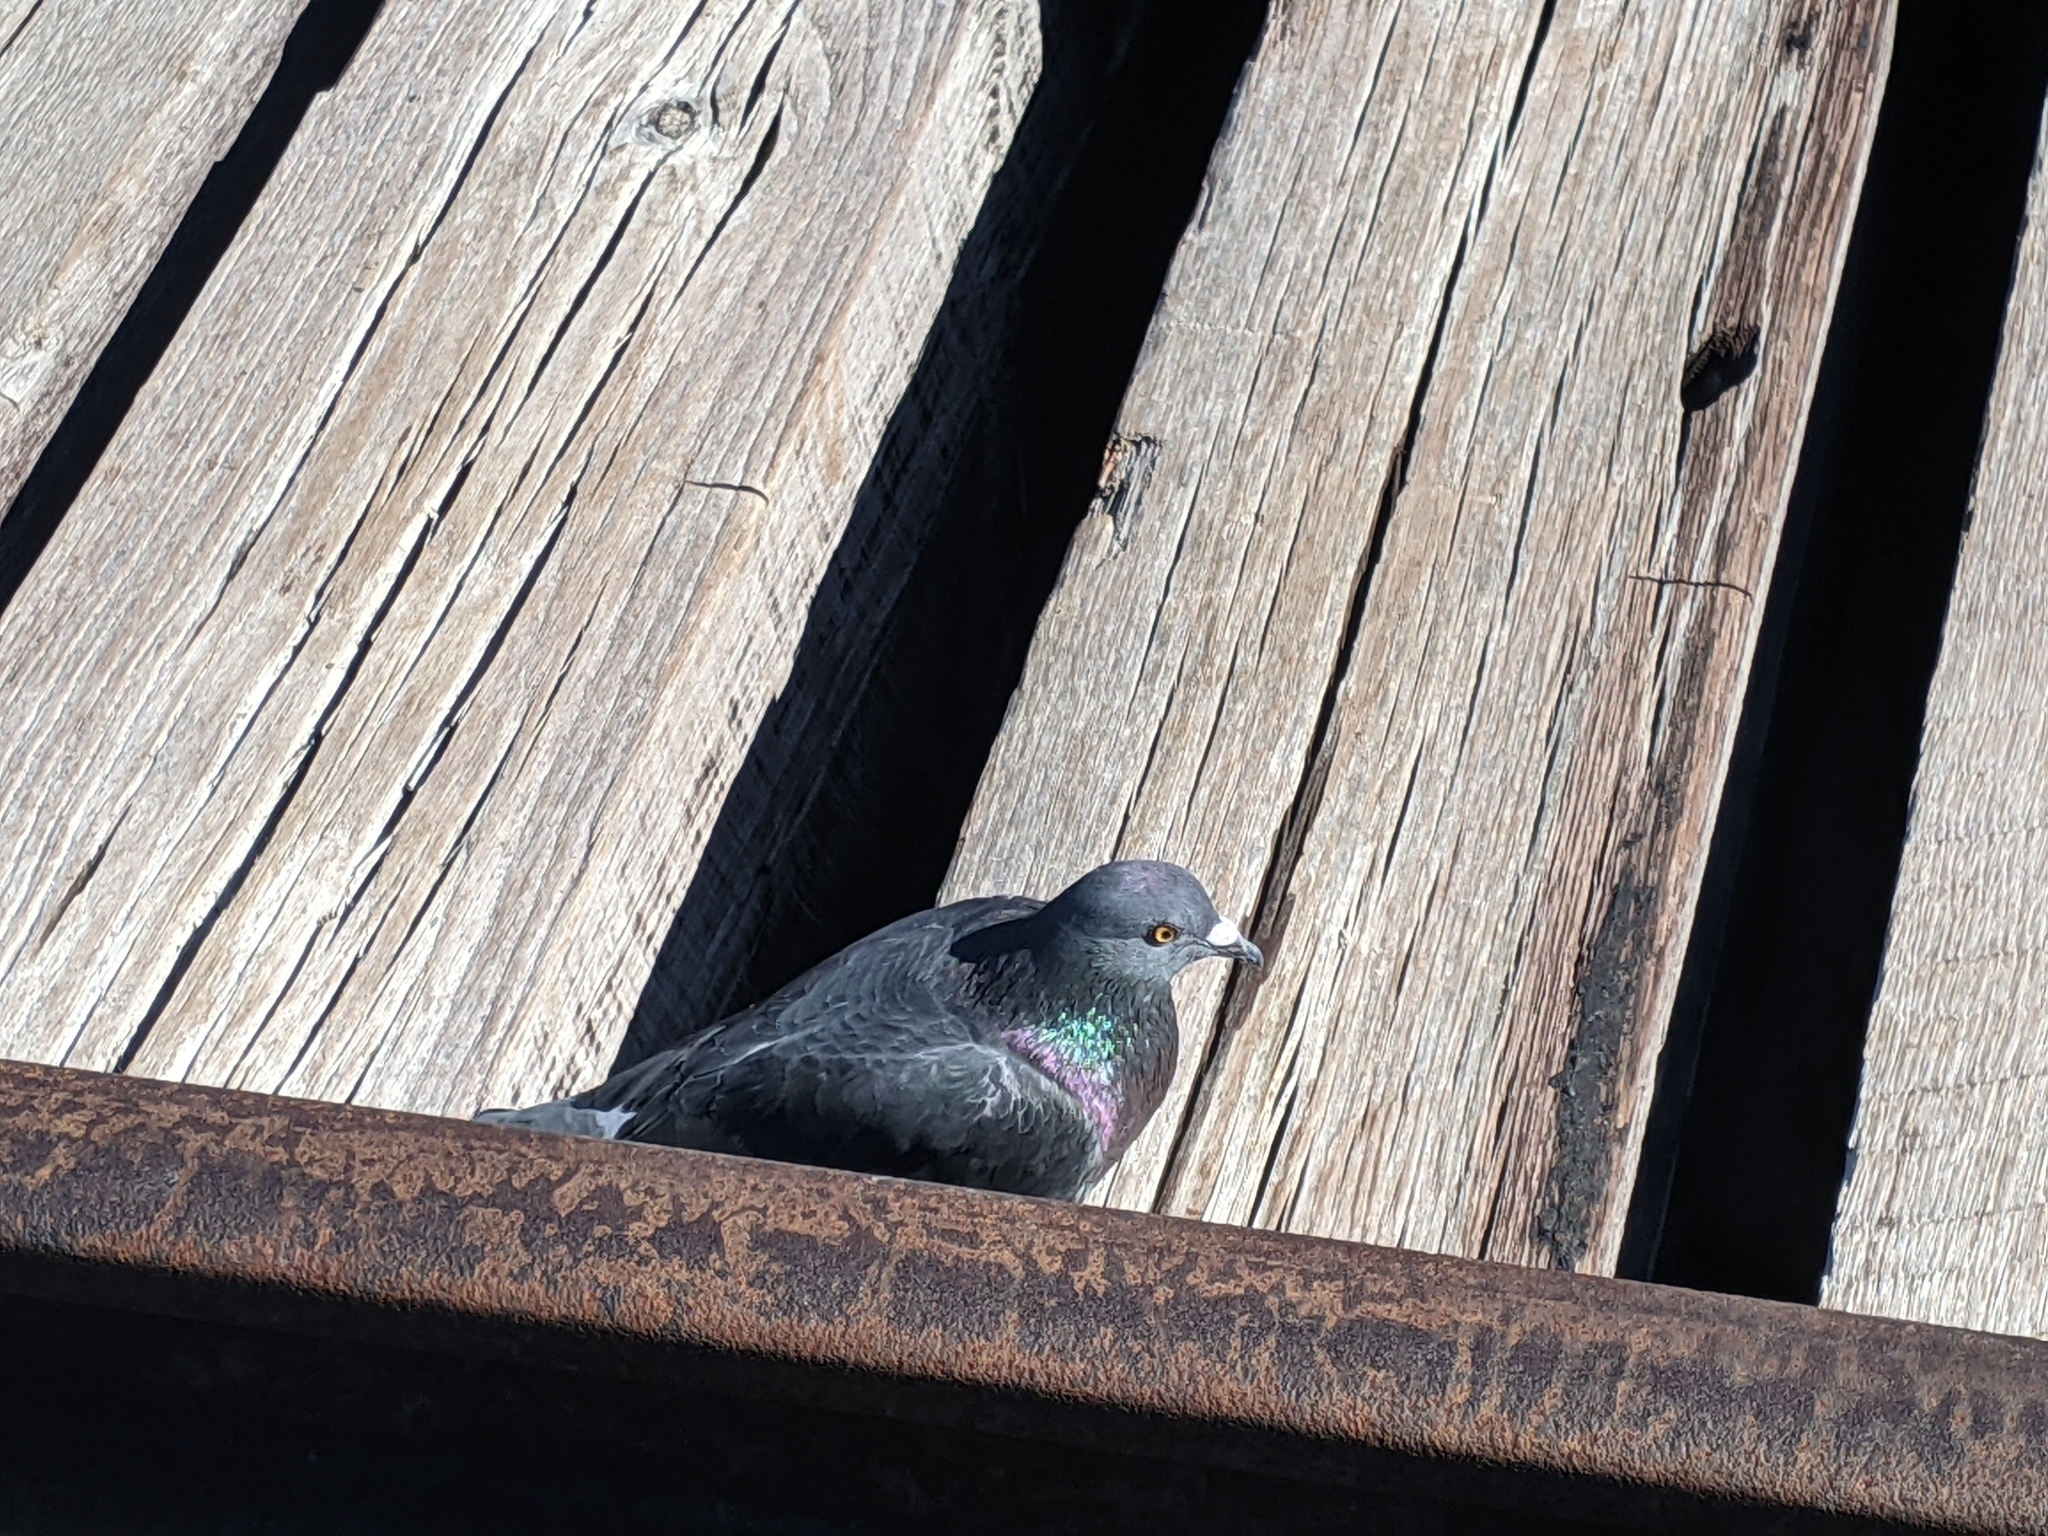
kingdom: Animalia
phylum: Chordata
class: Aves
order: Columbiformes
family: Columbidae
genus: Columba
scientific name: Columba livia
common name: Rock pigeon
